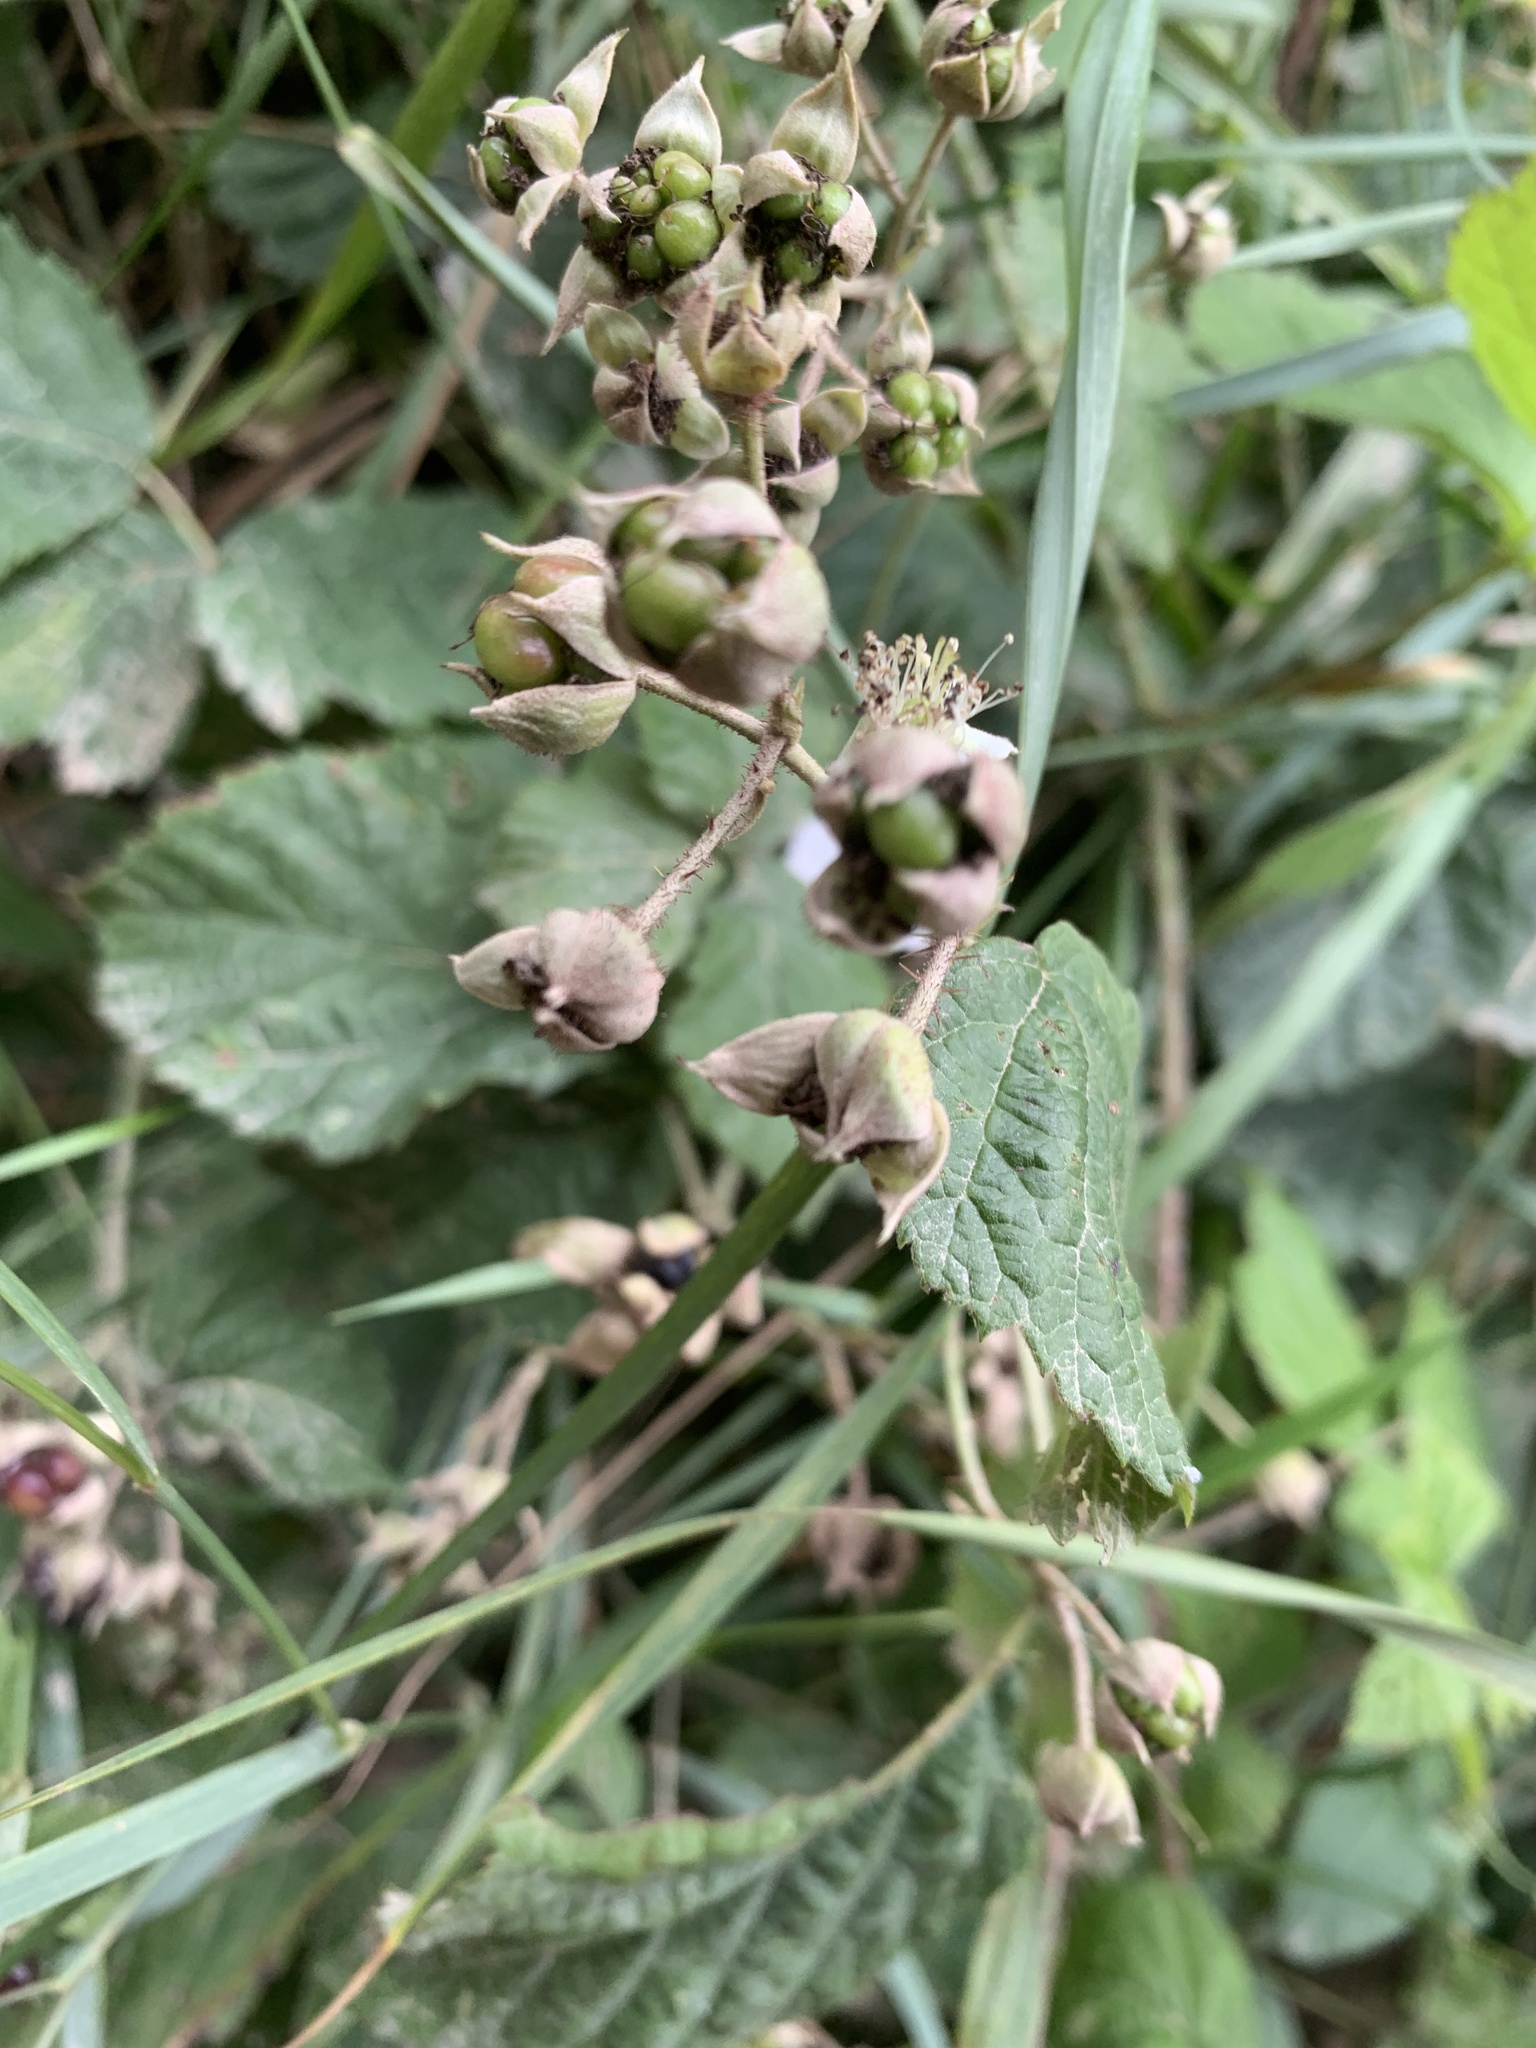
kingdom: Plantae
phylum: Tracheophyta
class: Magnoliopsida
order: Rosales
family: Rosaceae
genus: Rubus
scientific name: Rubus caesius
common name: Dewberry
